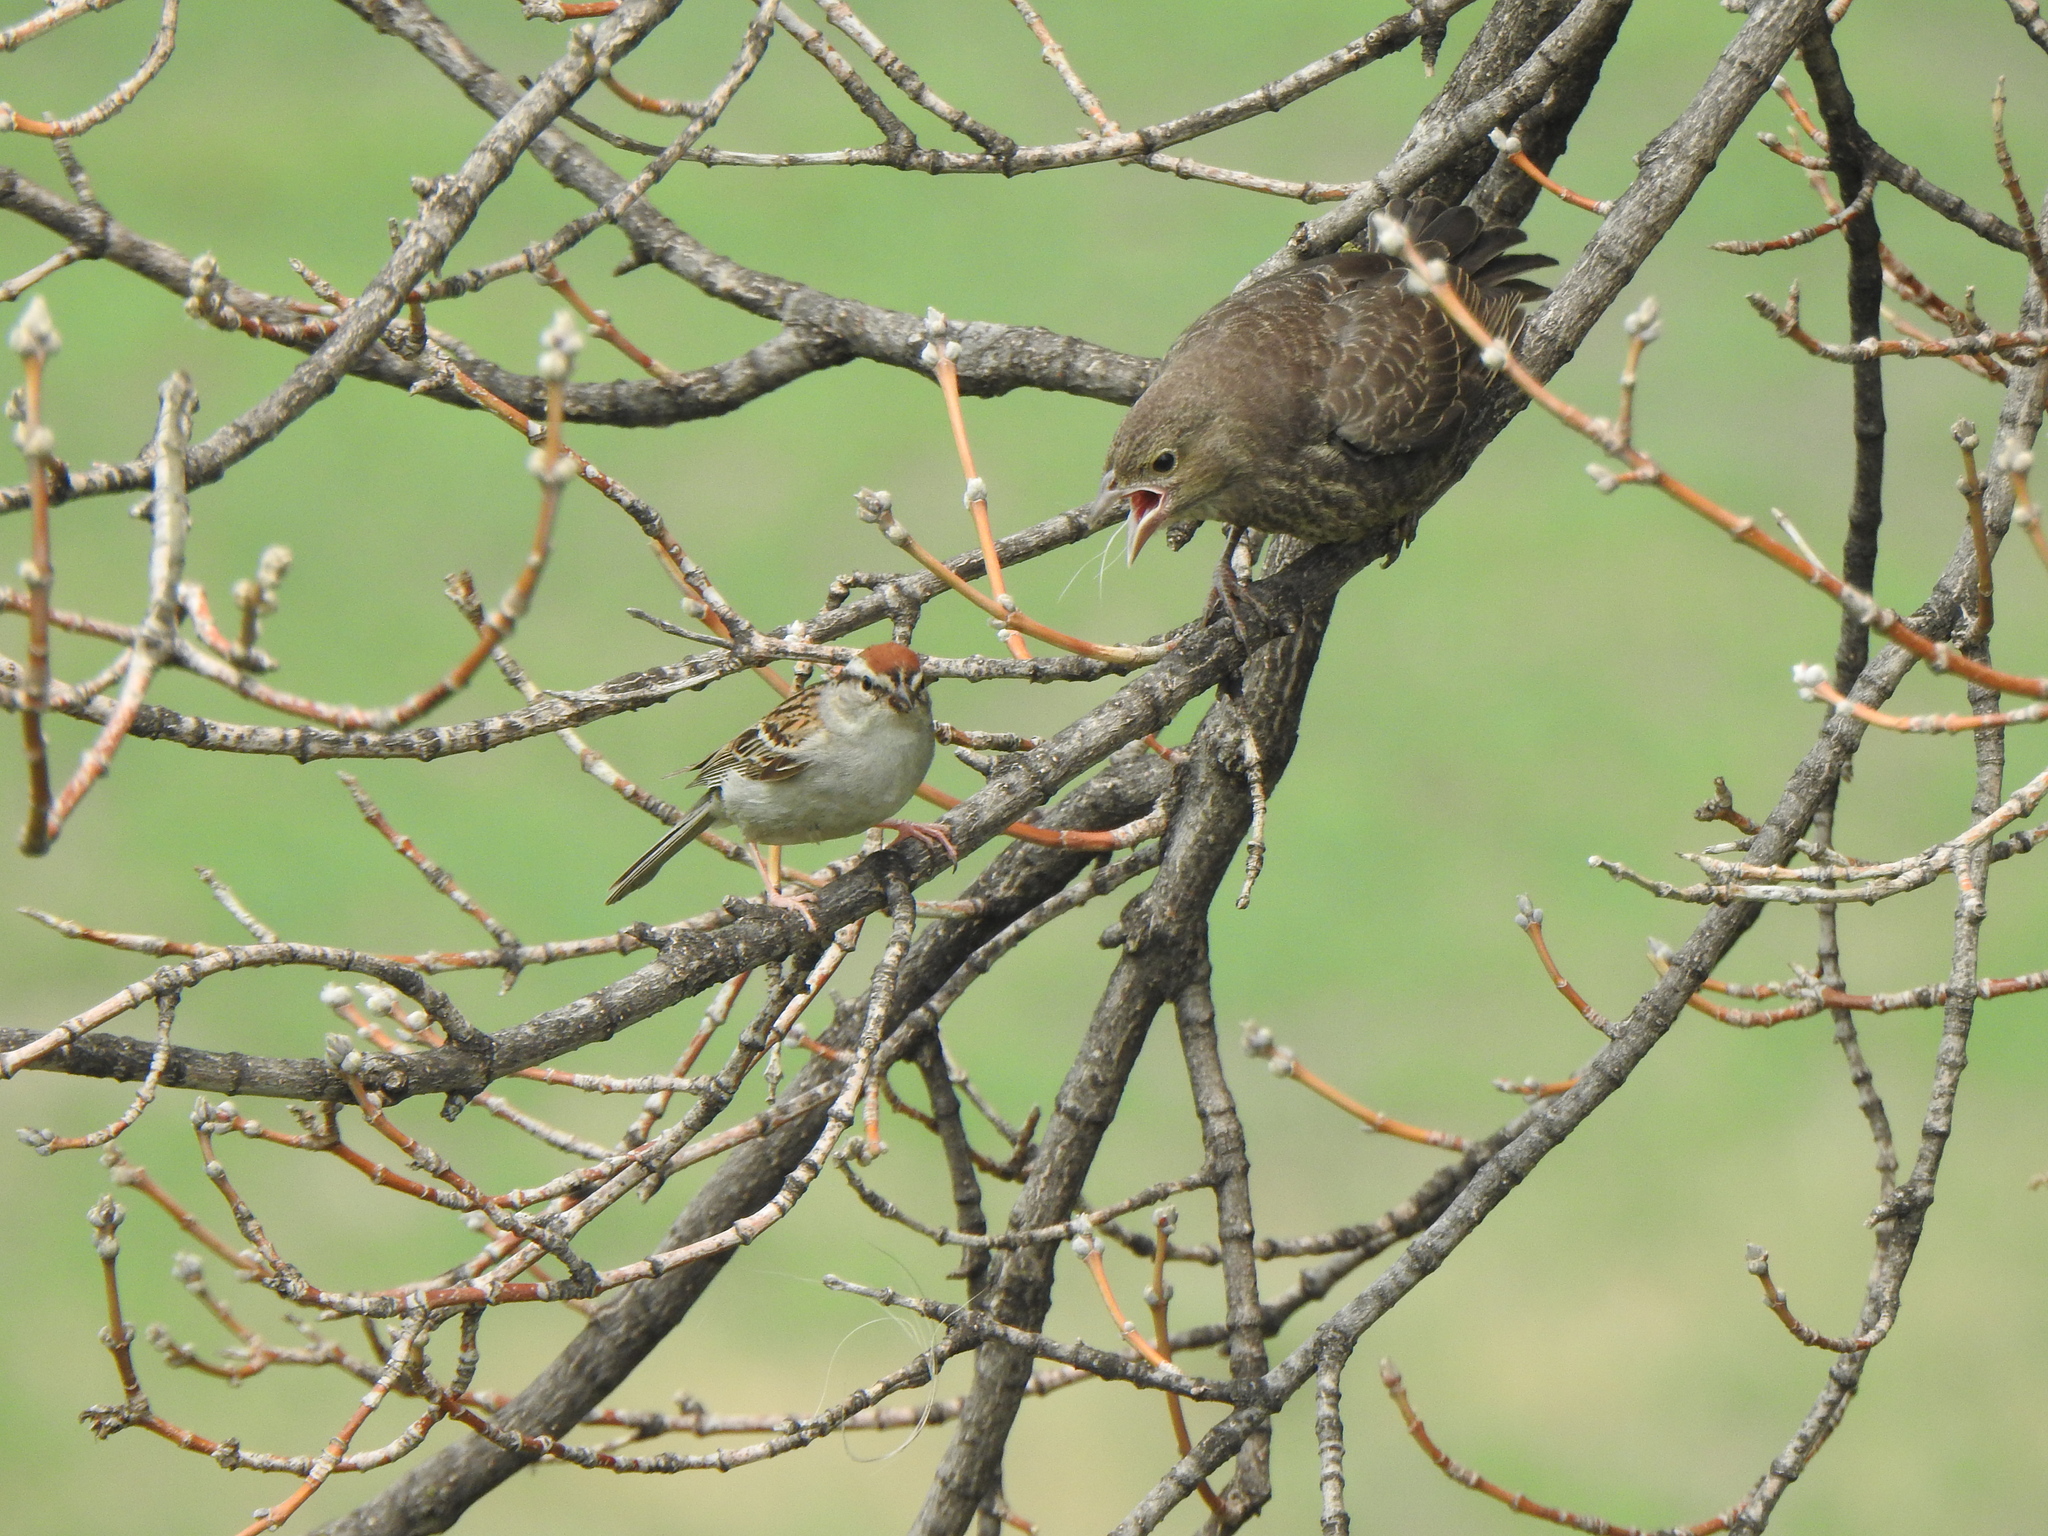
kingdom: Animalia
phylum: Chordata
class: Aves
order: Passeriformes
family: Passerellidae
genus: Spizella
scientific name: Spizella passerina
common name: Chipping sparrow
